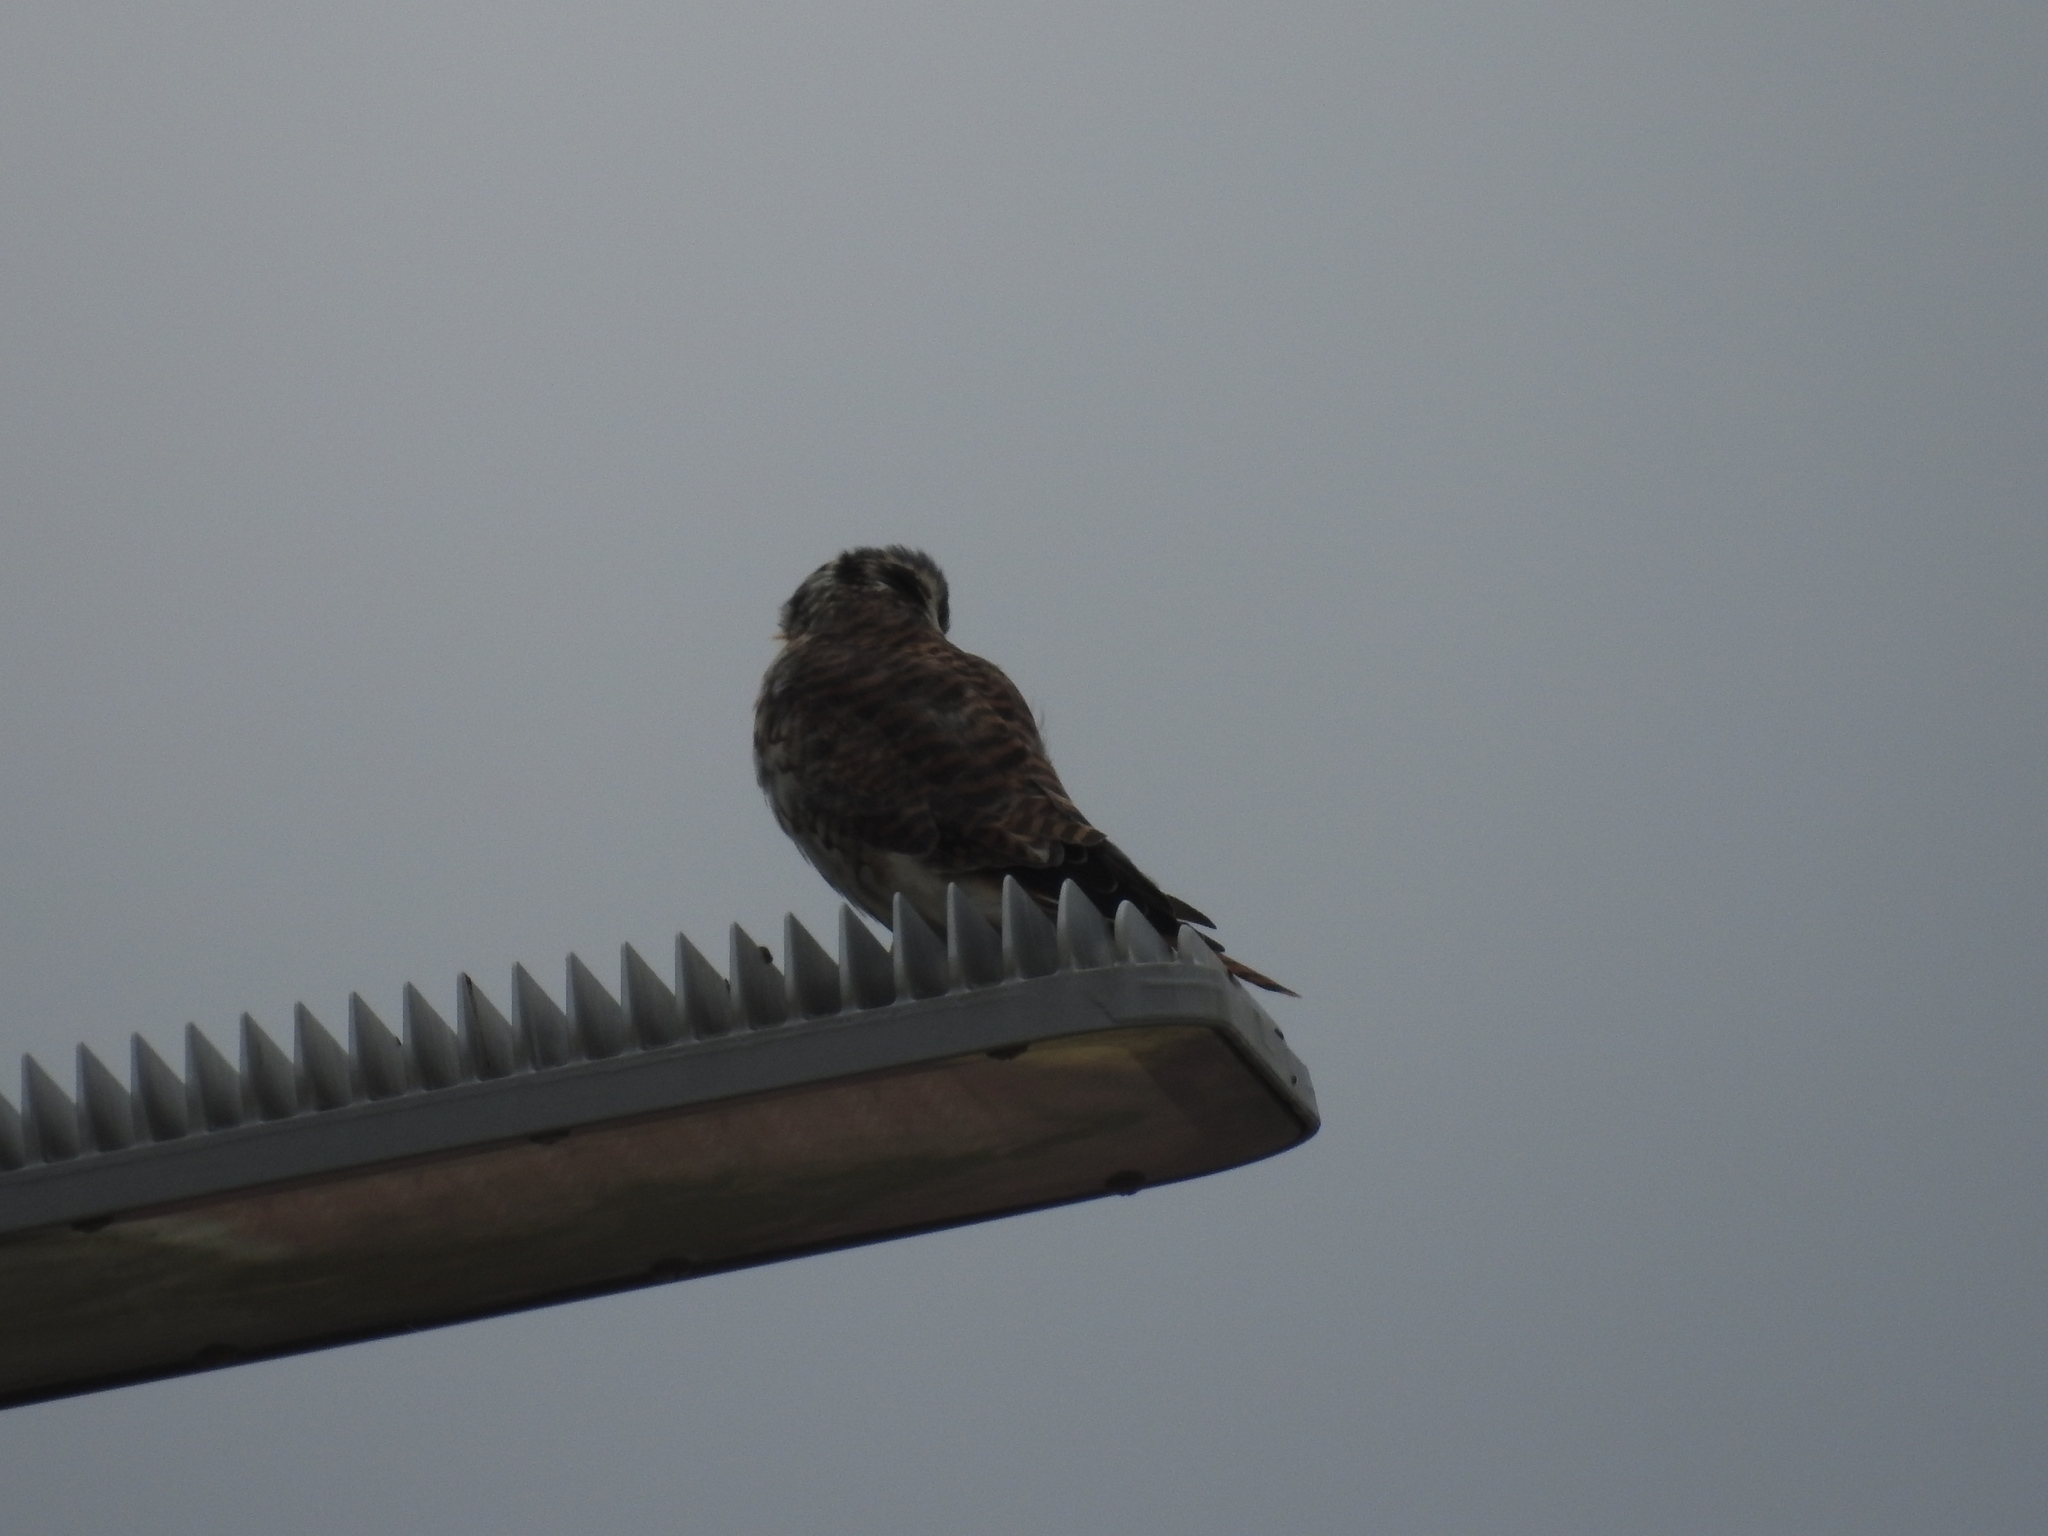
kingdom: Animalia
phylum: Chordata
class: Aves
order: Falconiformes
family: Falconidae
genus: Falco
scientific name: Falco sparverius
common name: American kestrel
